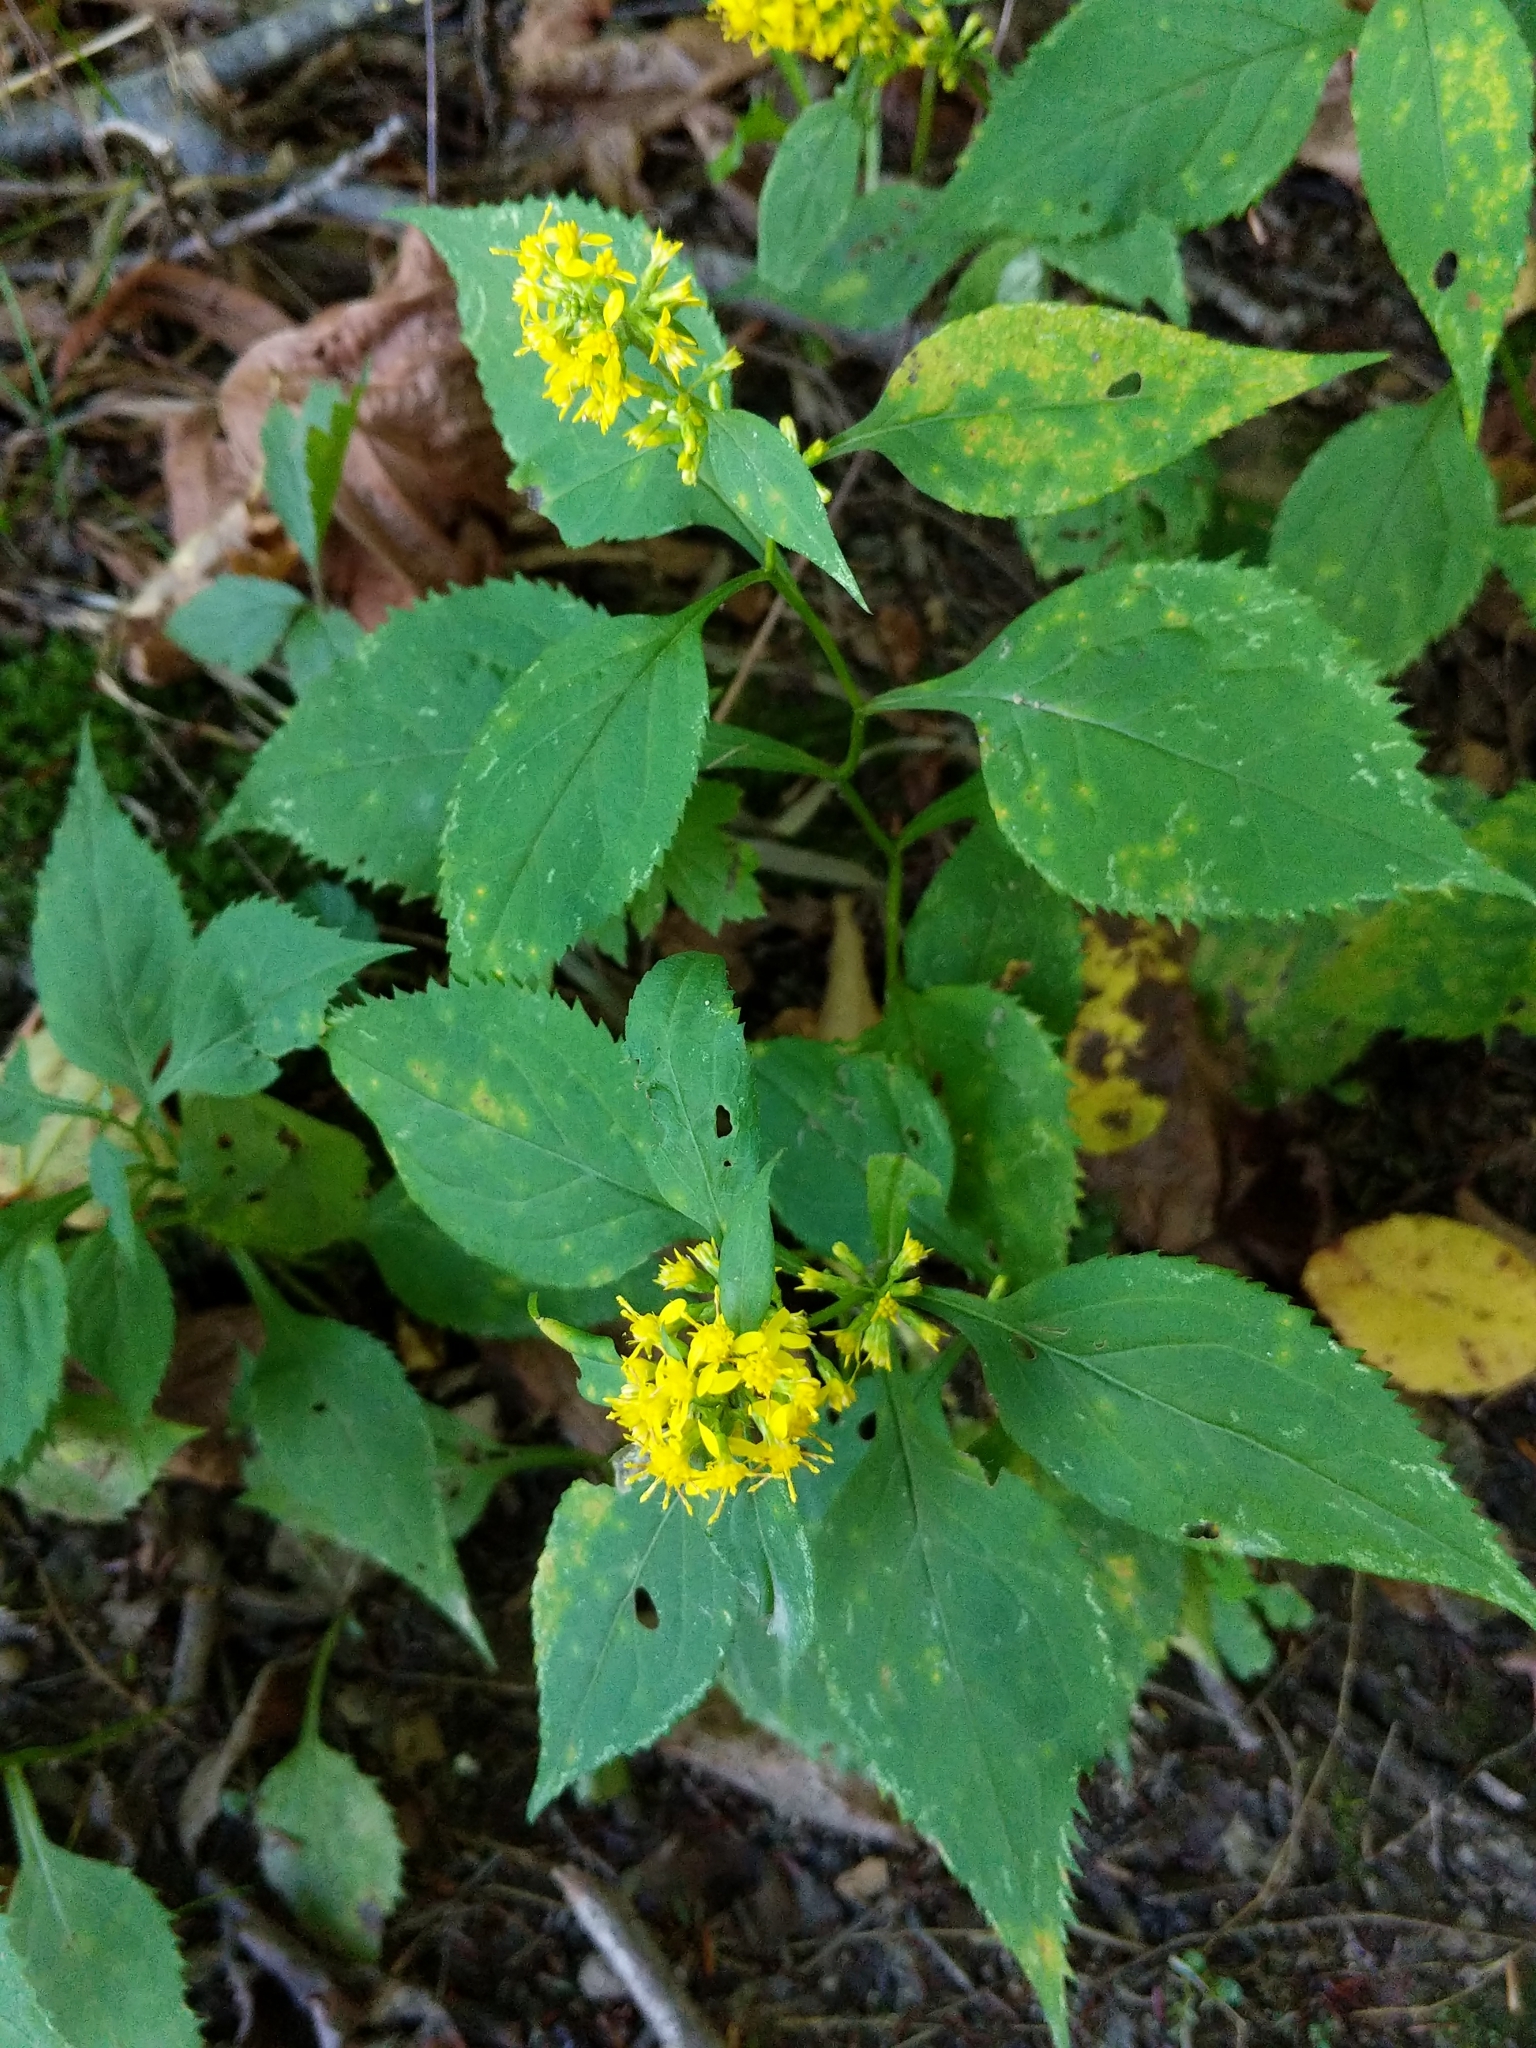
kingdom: Plantae
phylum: Tracheophyta
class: Magnoliopsida
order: Asterales
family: Asteraceae
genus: Solidago
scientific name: Solidago flexicaulis
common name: Zig-zag goldenrod
